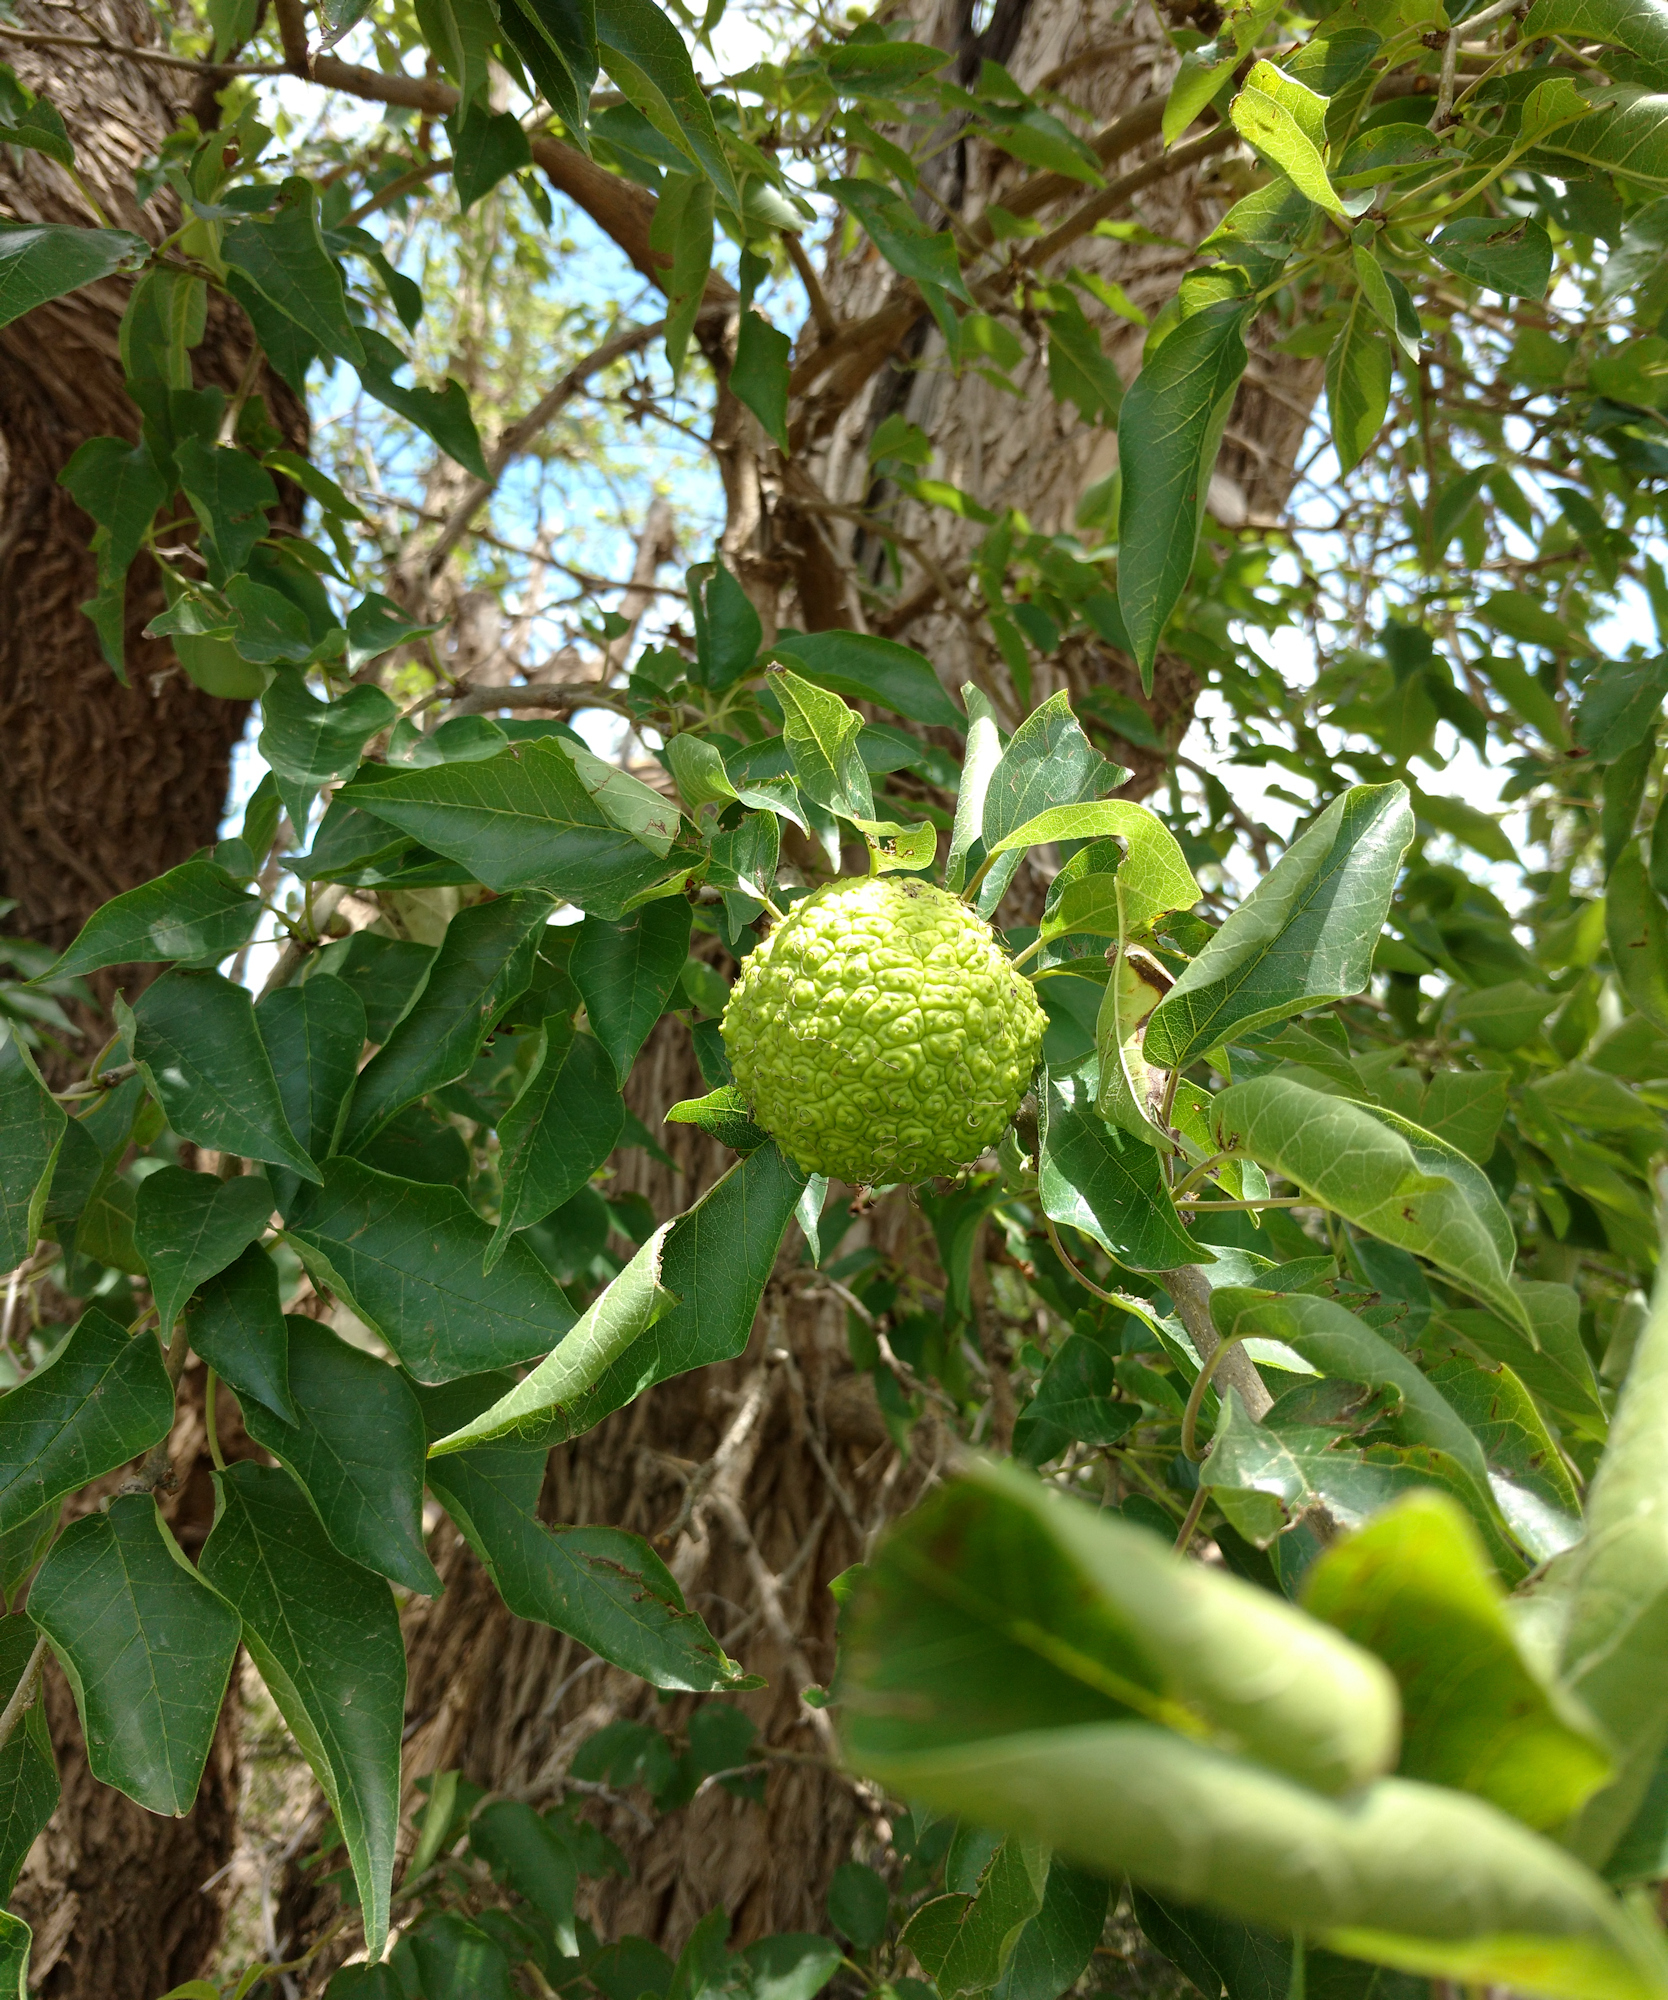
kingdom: Plantae
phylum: Tracheophyta
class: Magnoliopsida
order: Rosales
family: Moraceae
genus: Maclura
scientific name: Maclura pomifera
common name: Osage-orange
